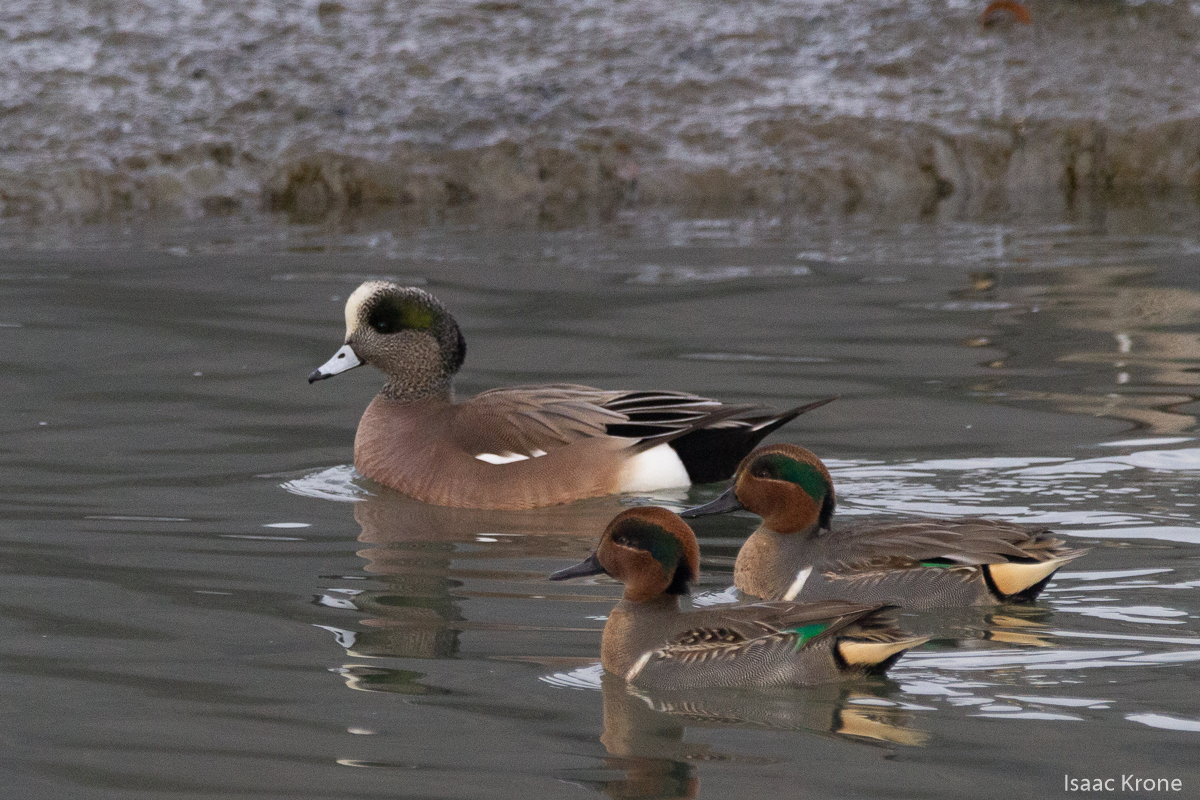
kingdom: Animalia
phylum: Chordata
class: Aves
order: Anseriformes
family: Anatidae
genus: Mareca
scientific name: Mareca americana
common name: American wigeon
